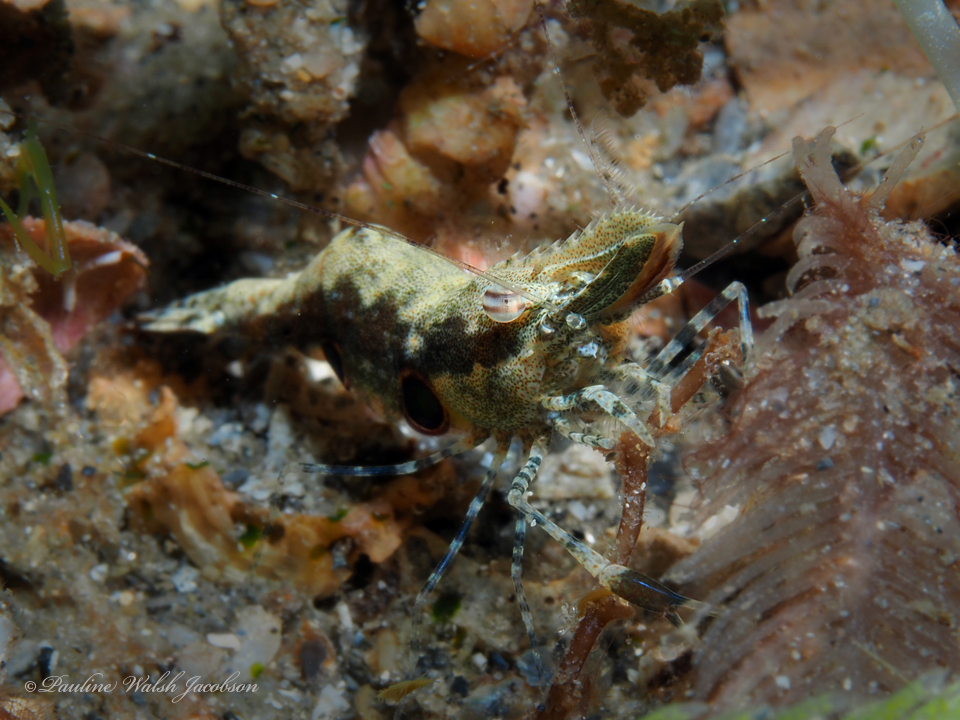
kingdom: Animalia
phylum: Arthropoda
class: Malacostraca
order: Decapoda
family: Palaemonidae
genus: Leander
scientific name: Leander tenuicornis
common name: Brown glass shrimp
